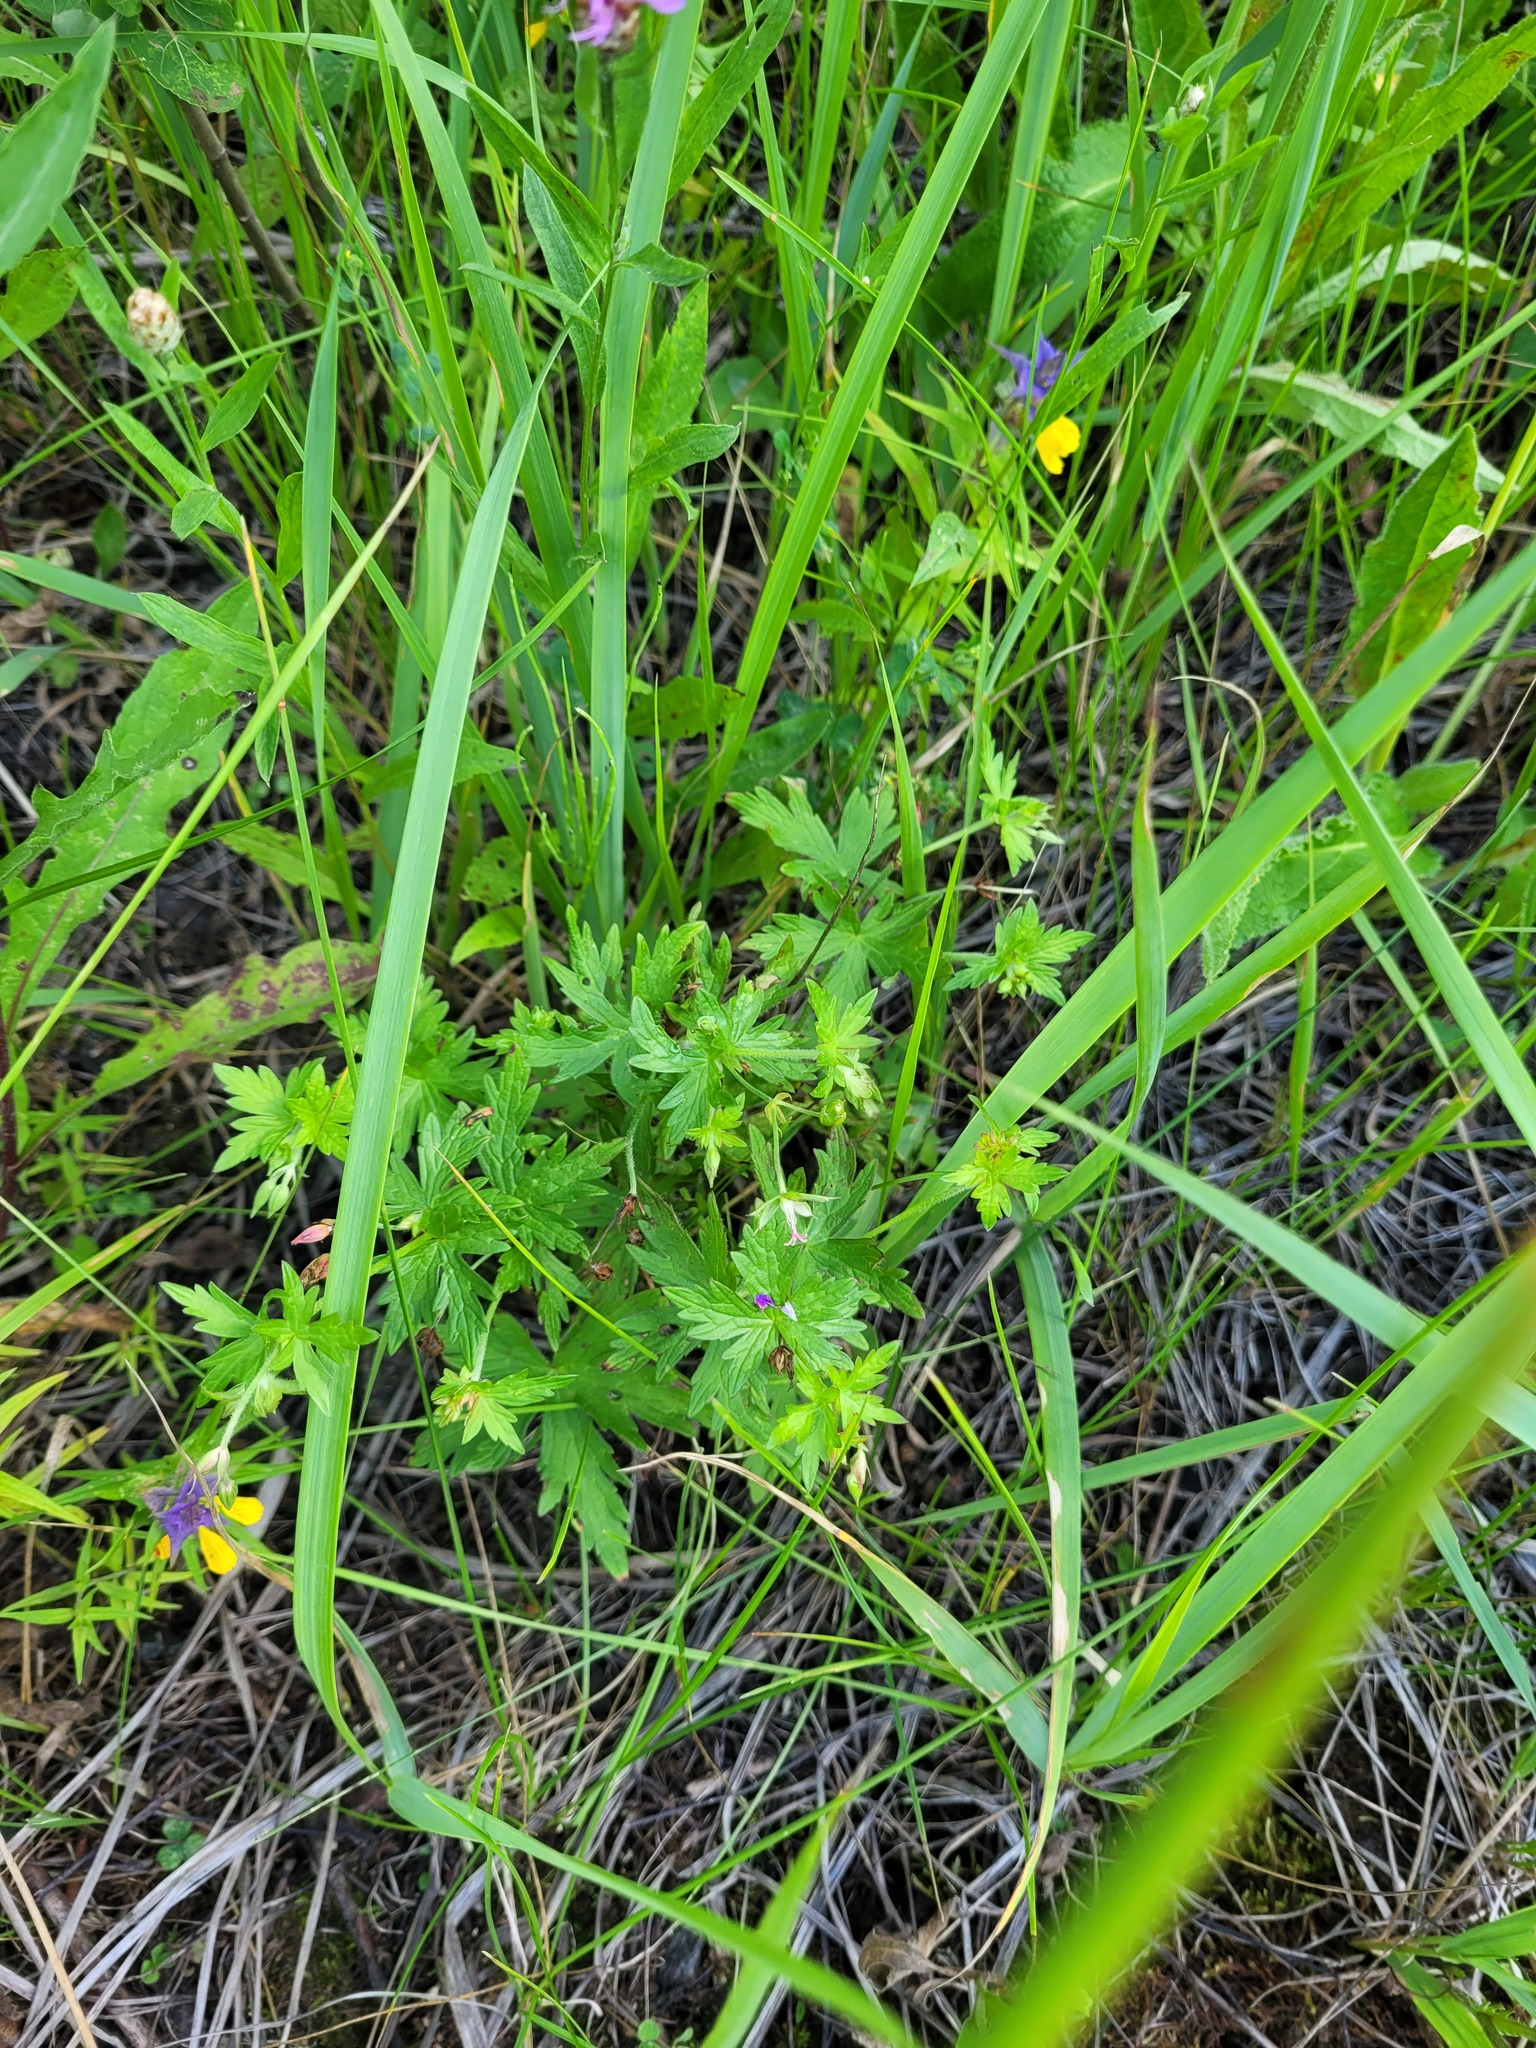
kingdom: Plantae
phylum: Tracheophyta
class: Magnoliopsida
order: Geraniales
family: Geraniaceae
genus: Geranium
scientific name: Geranium palustre
